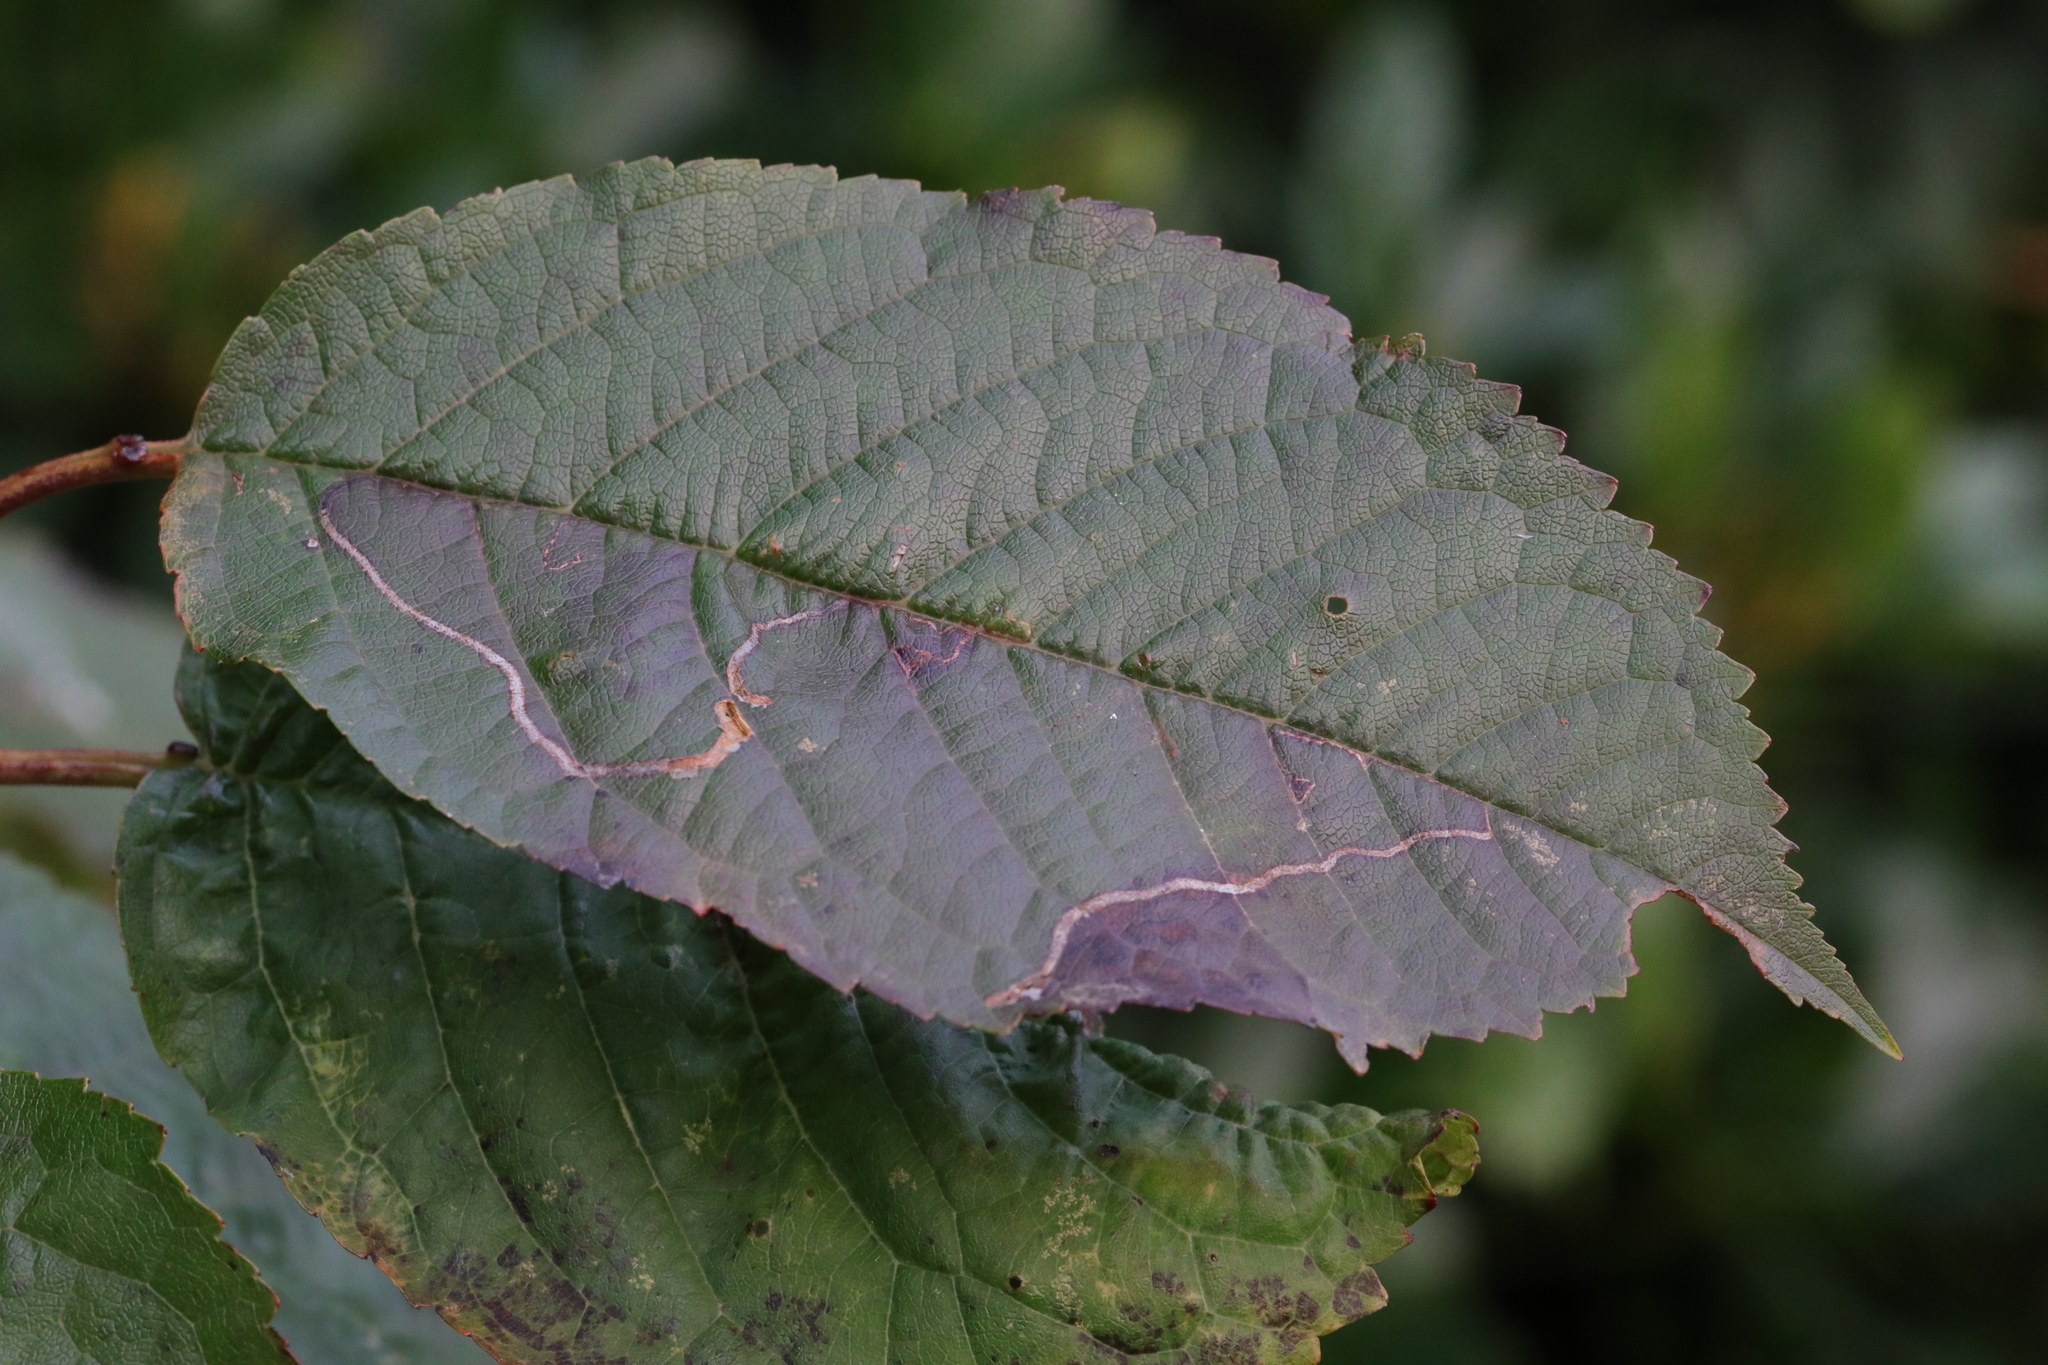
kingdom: Animalia
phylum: Arthropoda
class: Insecta
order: Lepidoptera
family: Lyonetiidae
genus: Lyonetia
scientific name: Lyonetia clerkella
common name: Apple leaf miner
